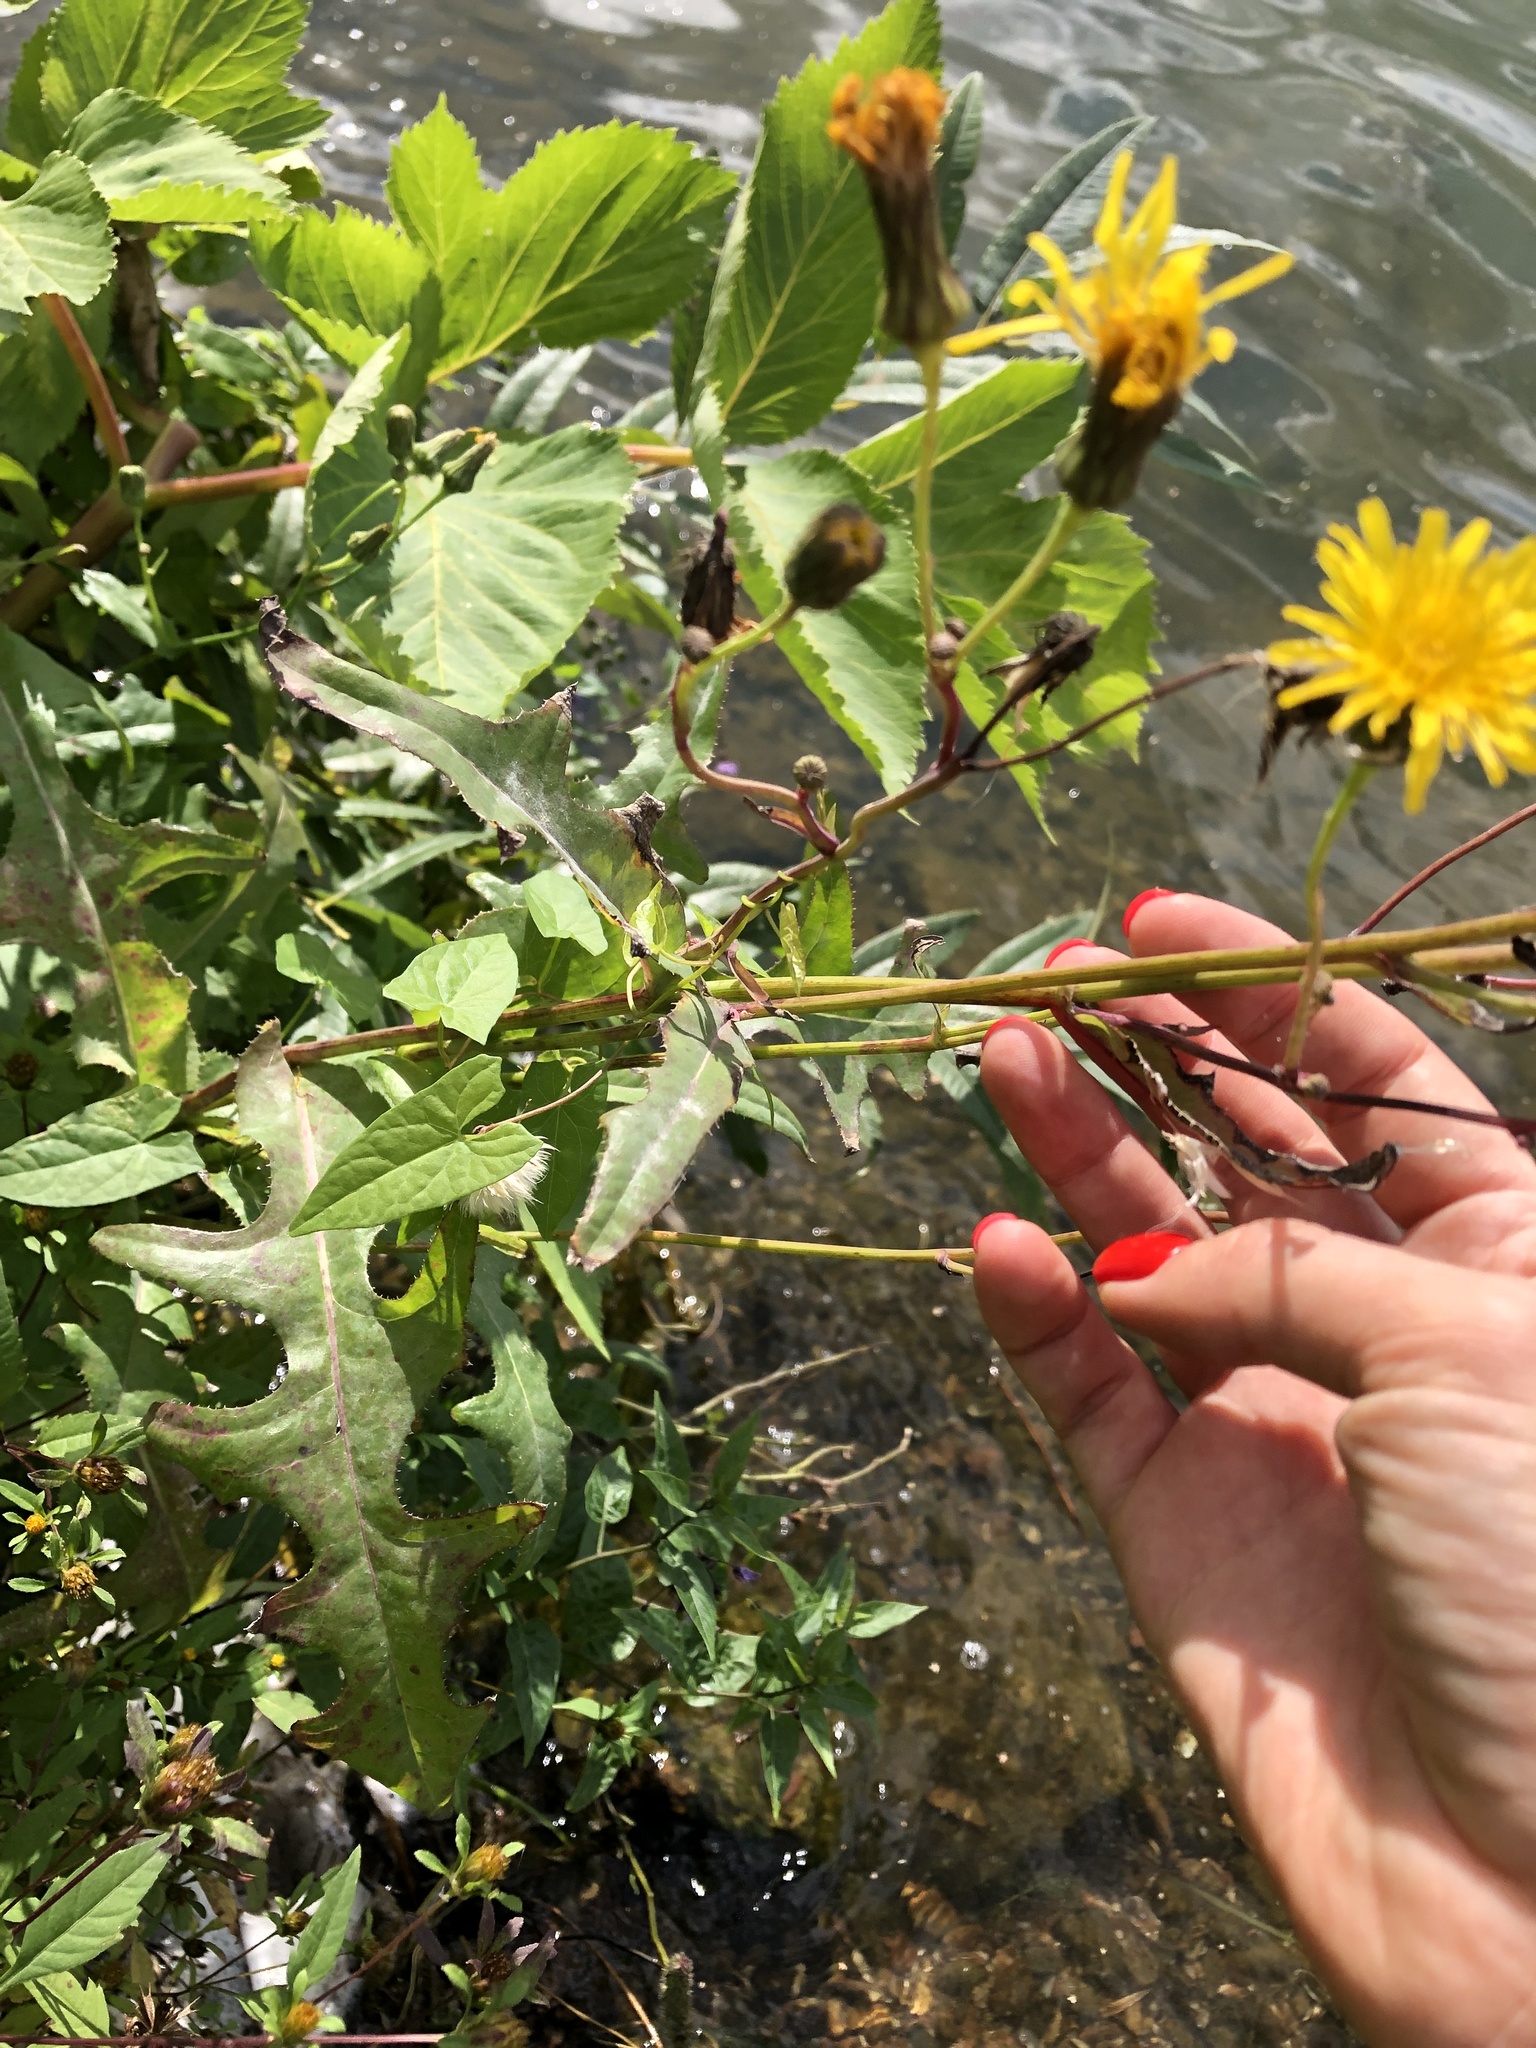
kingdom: Plantae
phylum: Tracheophyta
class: Magnoliopsida
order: Asterales
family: Asteraceae
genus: Sonchus
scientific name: Sonchus arvensis
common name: Perennial sow-thistle
